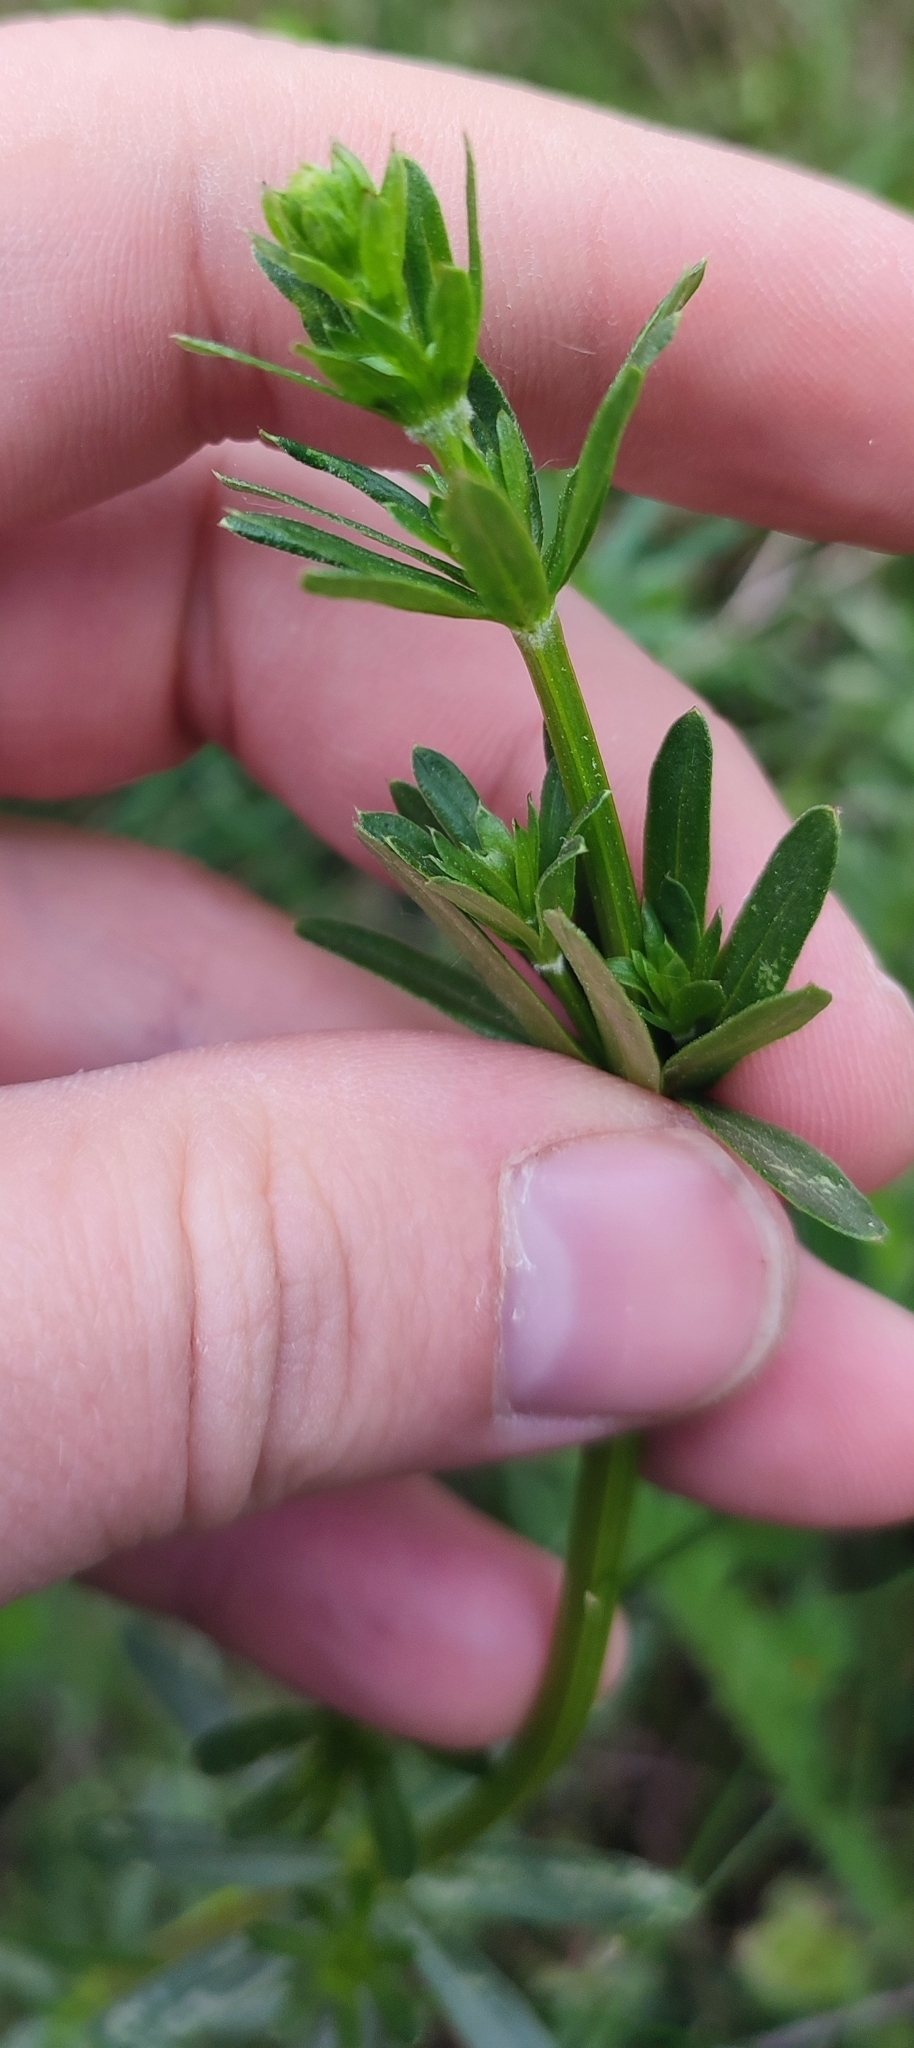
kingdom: Plantae
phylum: Tracheophyta
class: Magnoliopsida
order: Gentianales
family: Rubiaceae
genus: Galium
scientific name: Galium mollugo
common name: Hedge bedstraw
